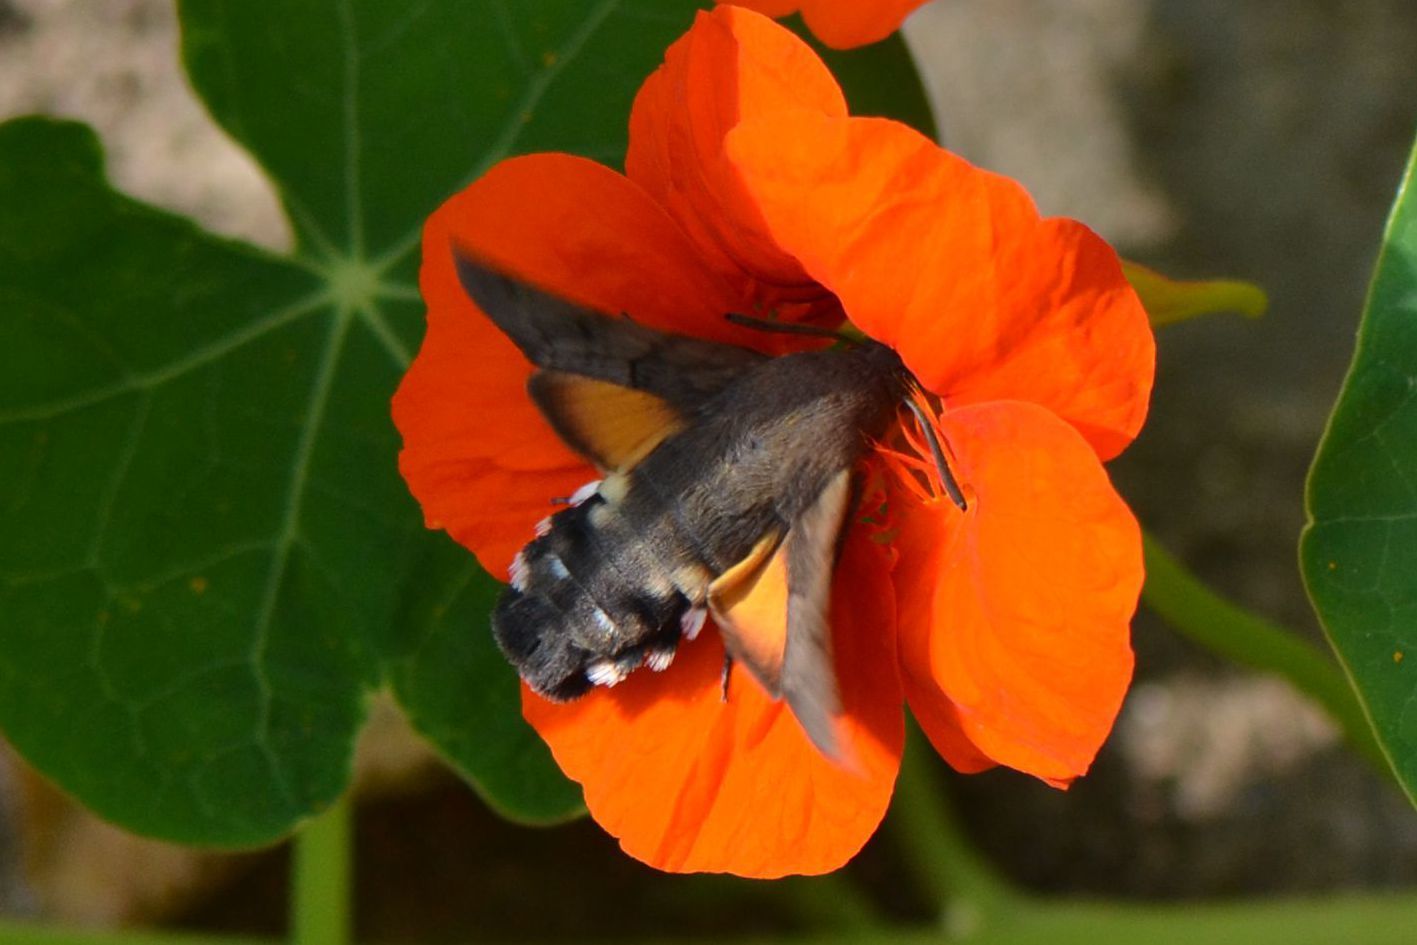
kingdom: Animalia
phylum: Arthropoda
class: Insecta
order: Lepidoptera
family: Sphingidae
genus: Macroglossum
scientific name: Macroglossum stellatarum
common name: Humming-bird hawk-moth
